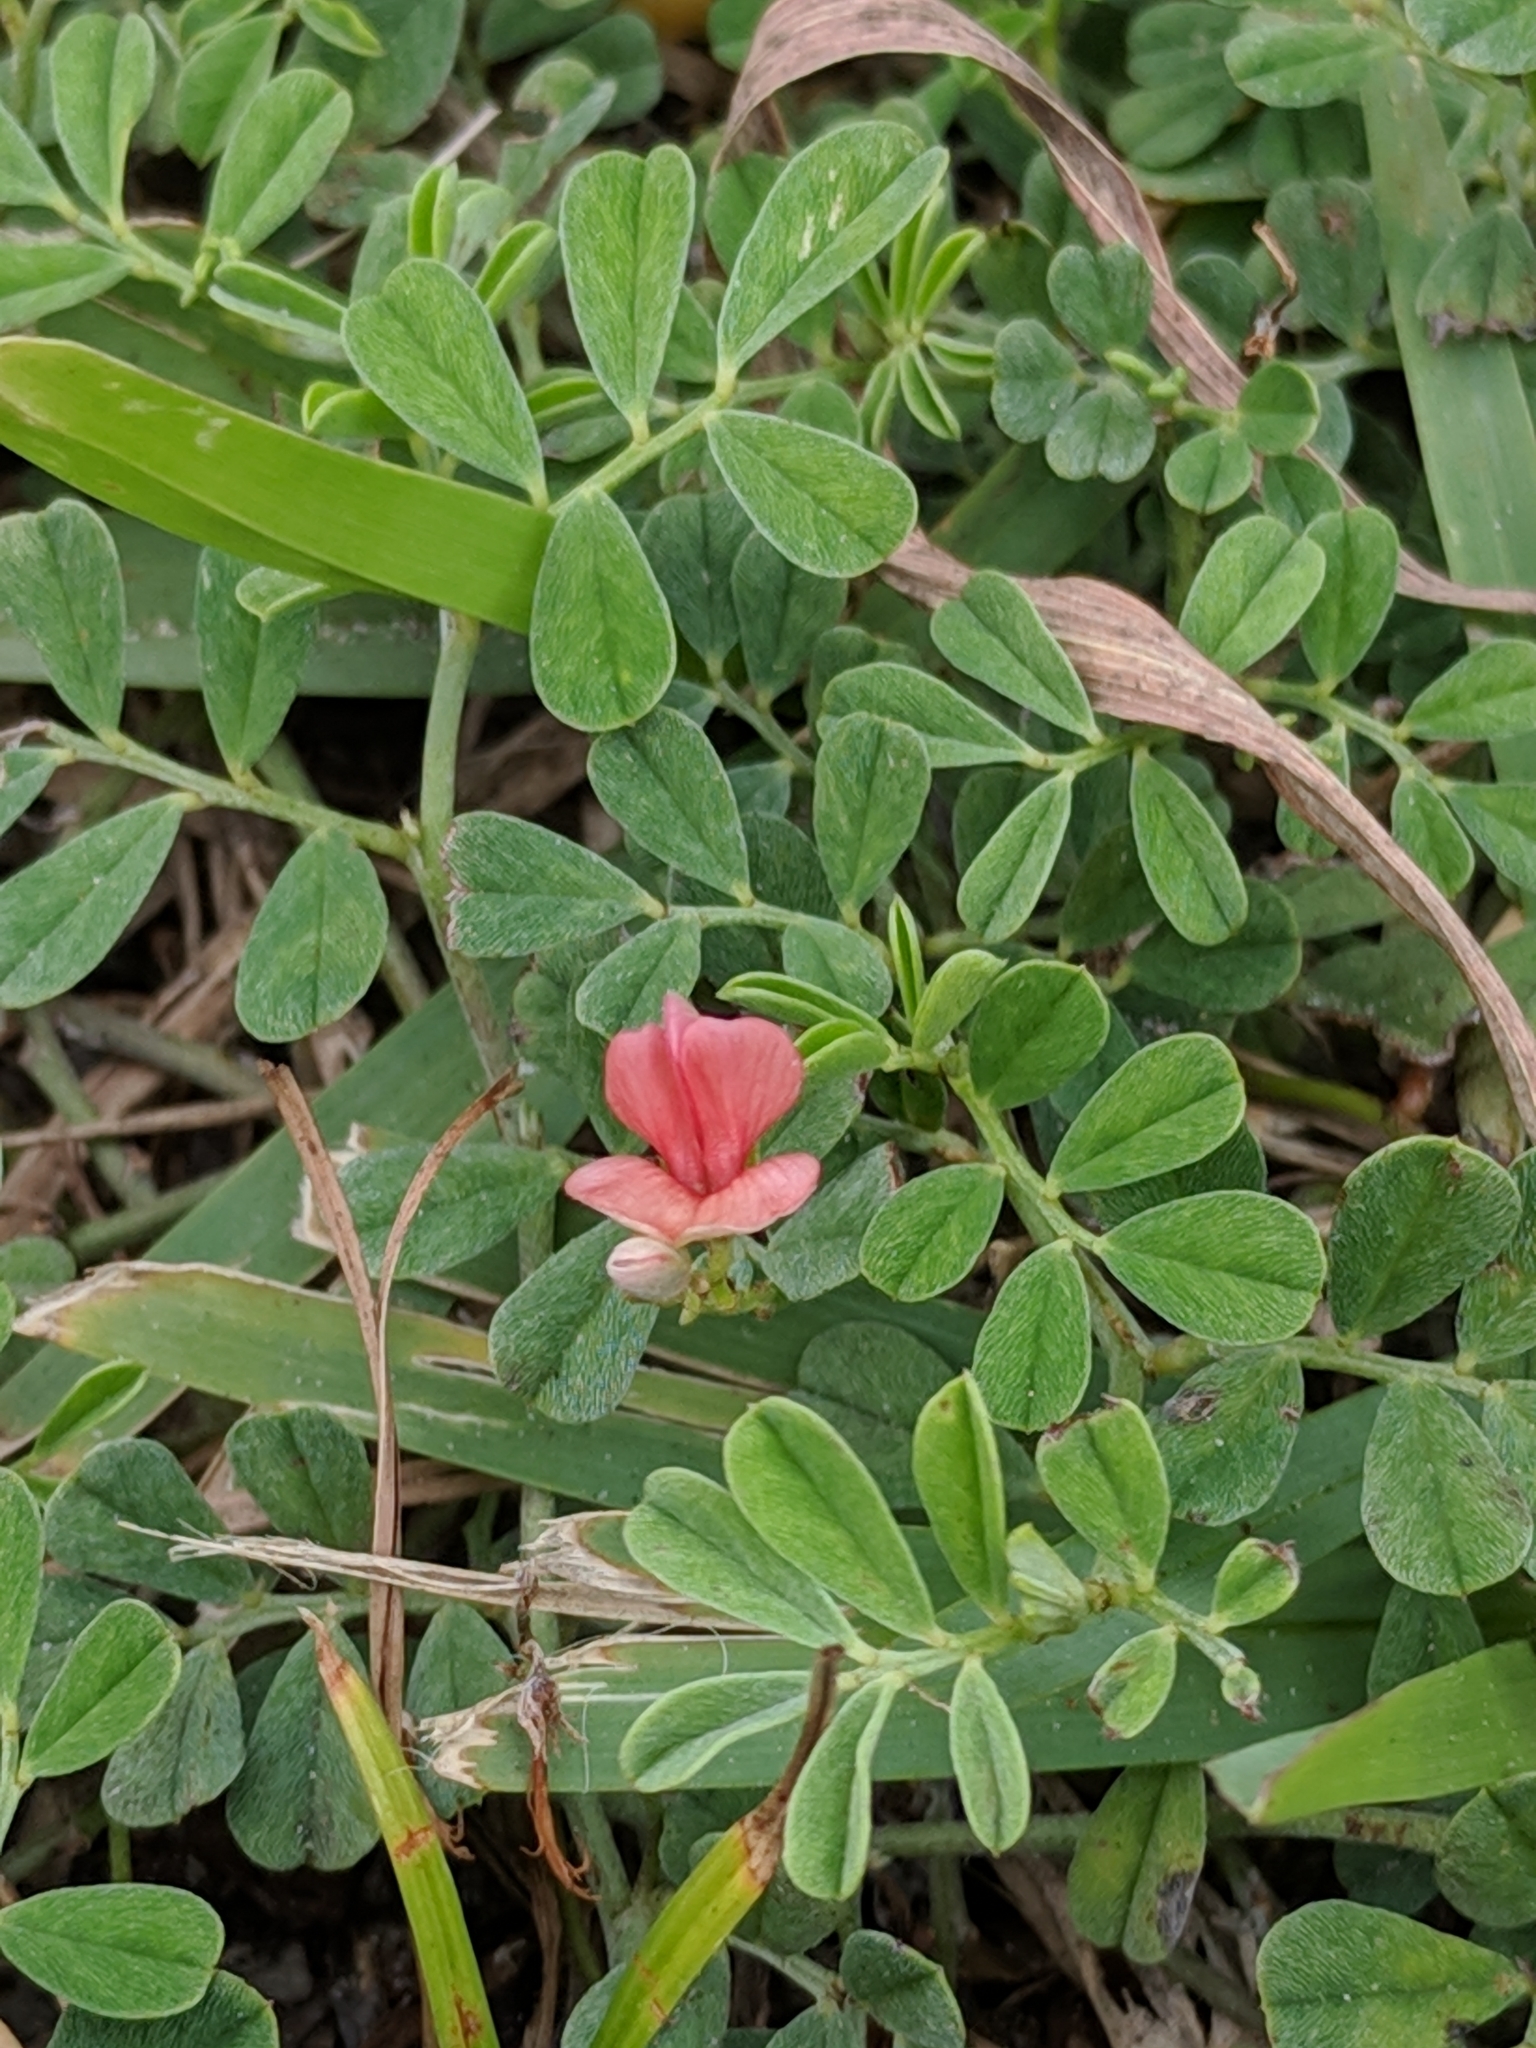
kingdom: Plantae
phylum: Tracheophyta
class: Magnoliopsida
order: Fabales
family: Fabaceae
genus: Indigofera
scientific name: Indigofera miniata
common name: Coast indigo
